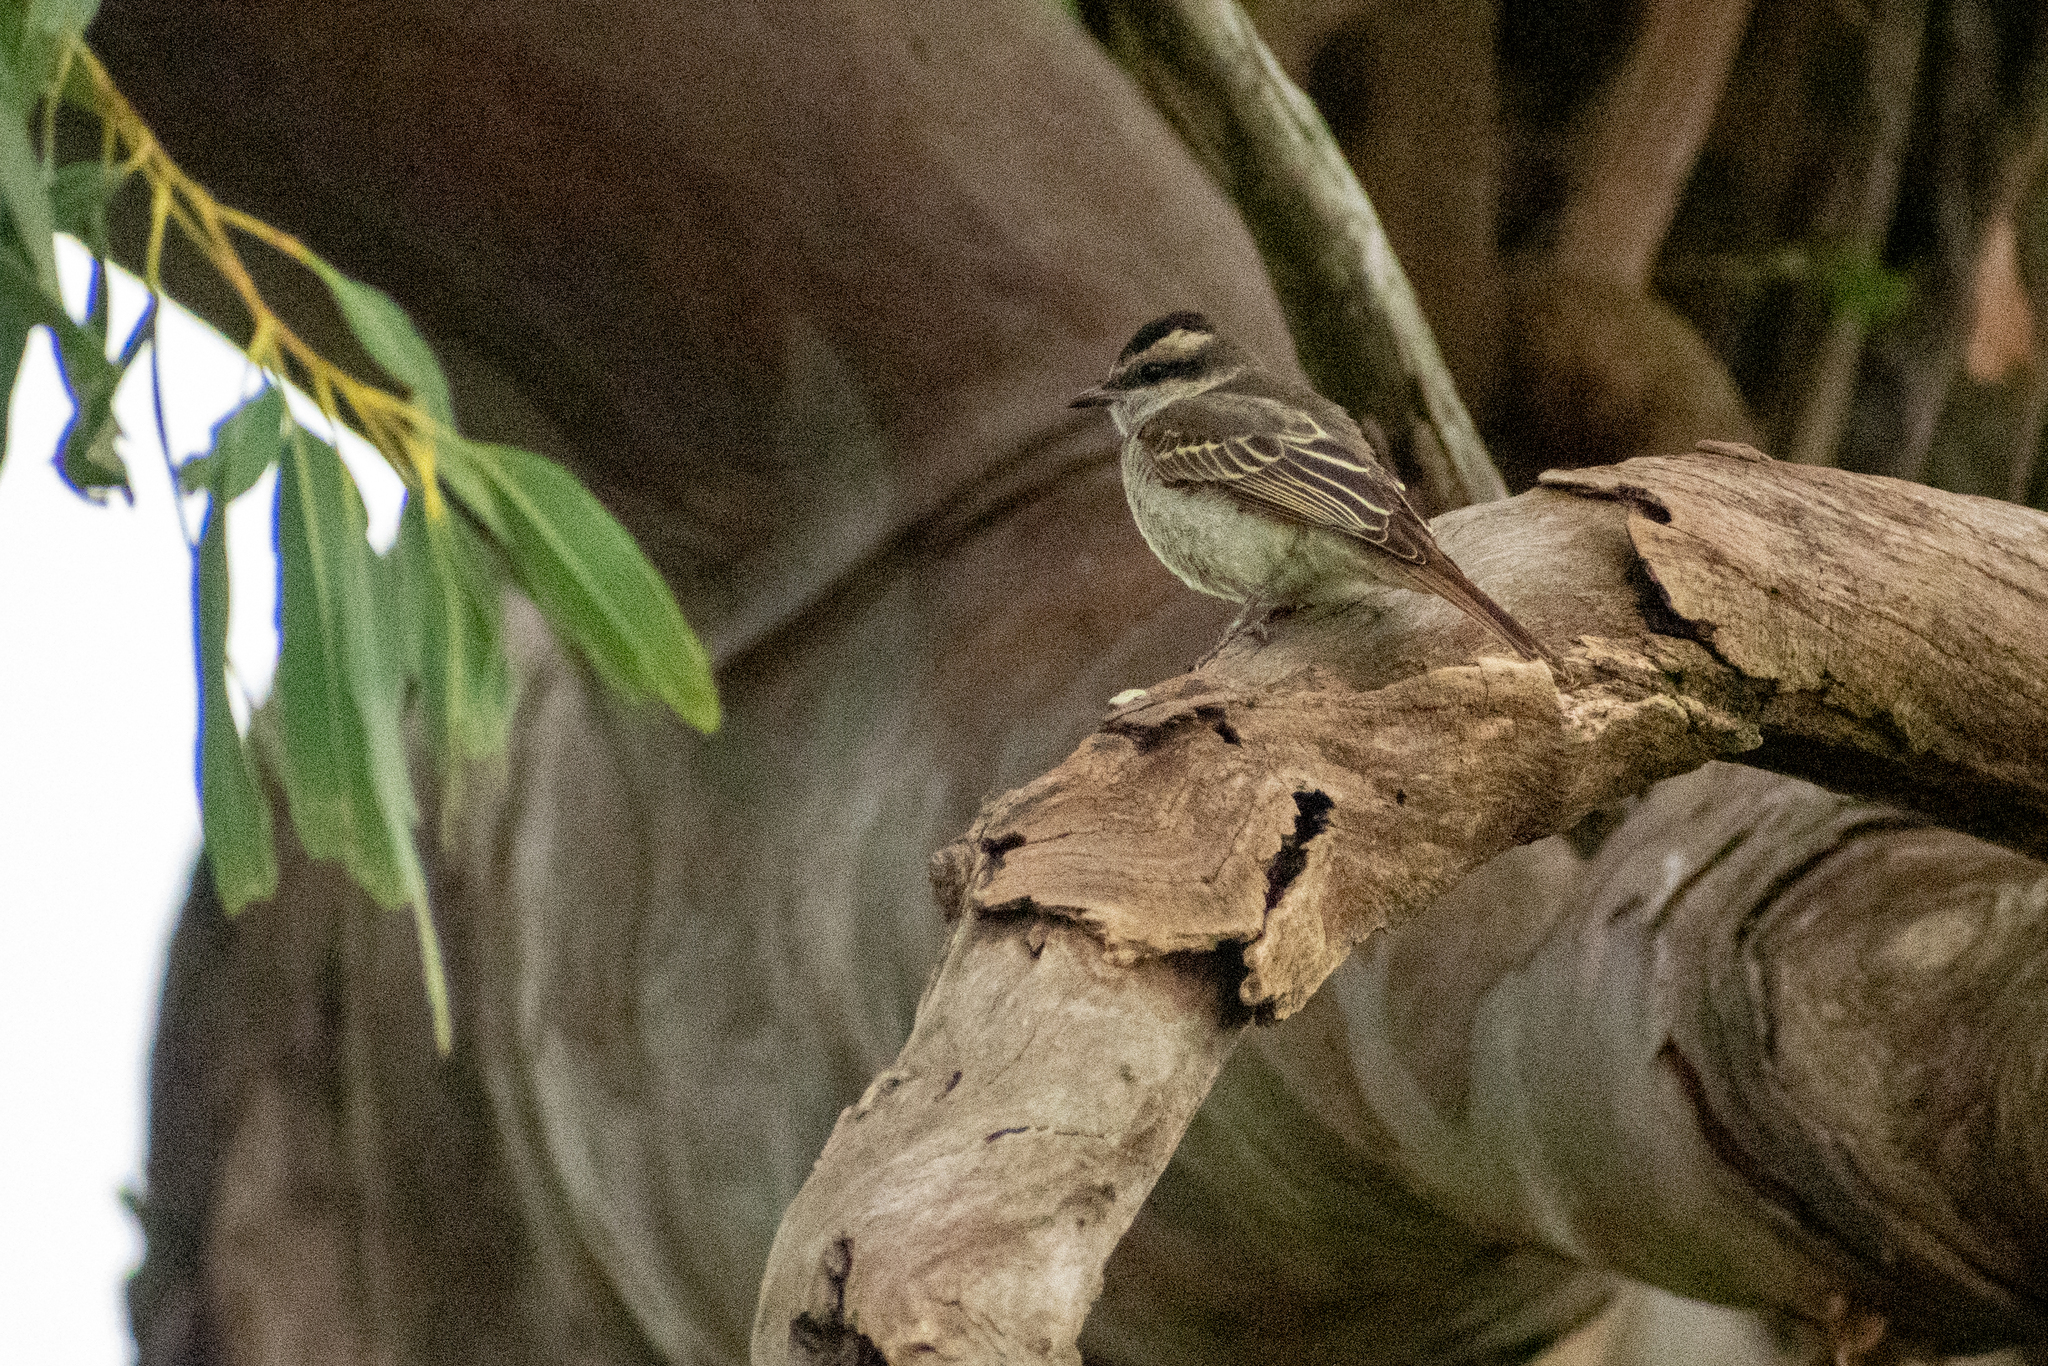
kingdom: Animalia
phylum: Chordata
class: Aves
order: Passeriformes
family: Tyrannidae
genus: Empidonomus
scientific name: Empidonomus aurantioatrocristatus
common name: Crowned slaty flycatcher
